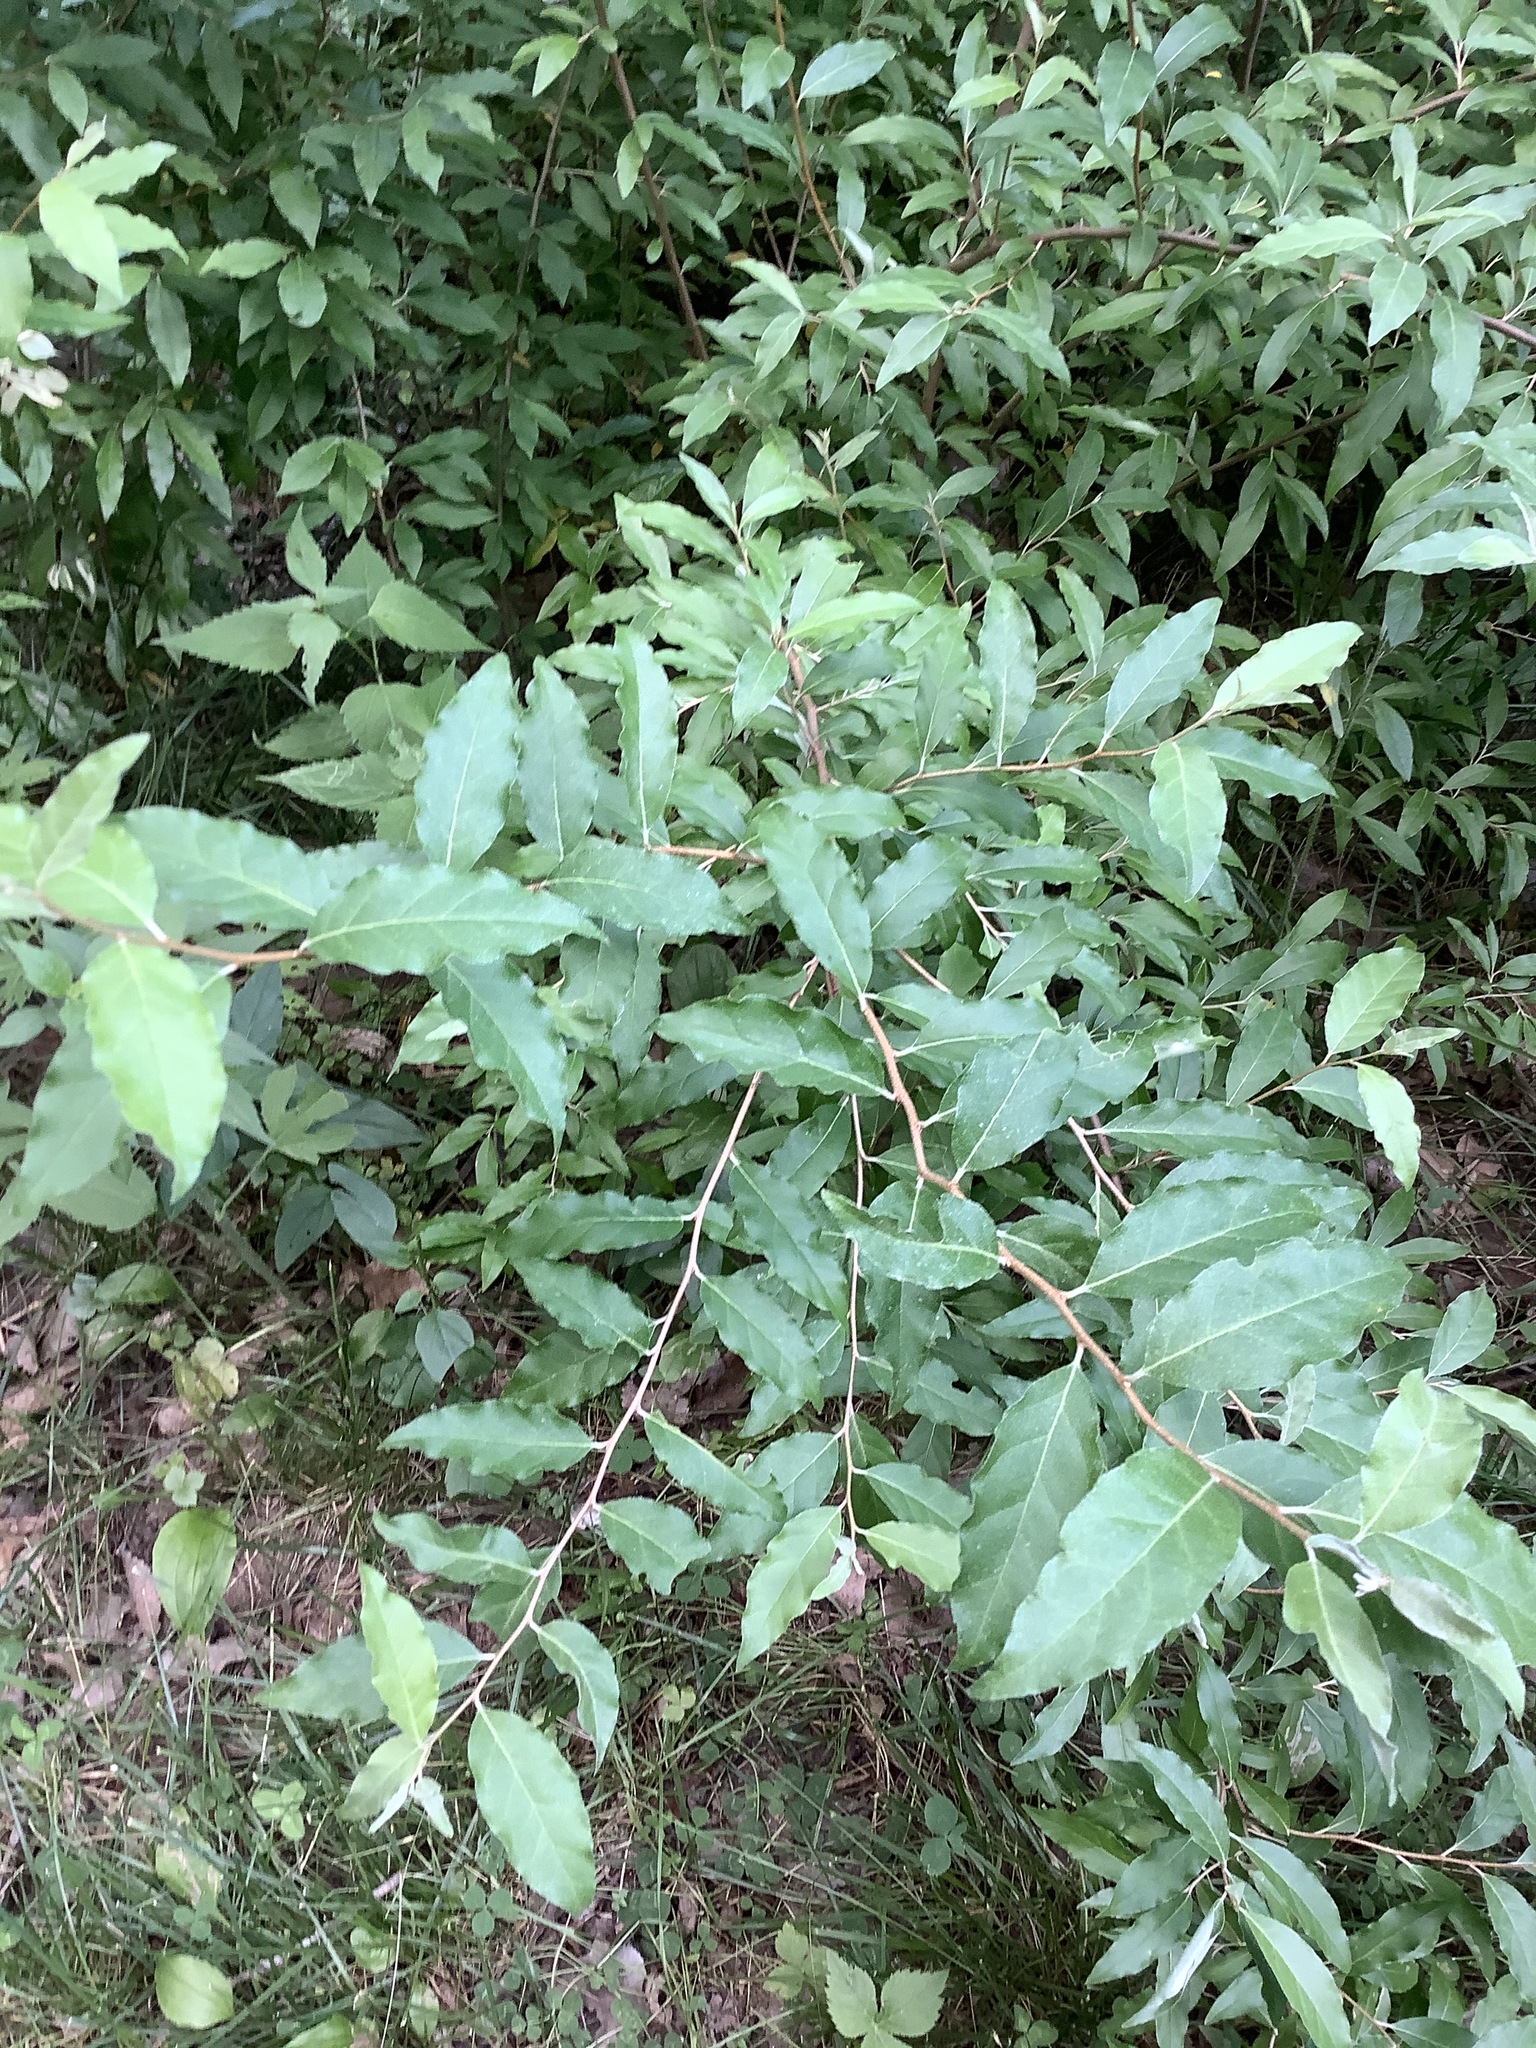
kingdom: Plantae
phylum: Tracheophyta
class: Magnoliopsida
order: Rosales
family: Elaeagnaceae
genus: Elaeagnus
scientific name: Elaeagnus umbellata
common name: Autumn olive
